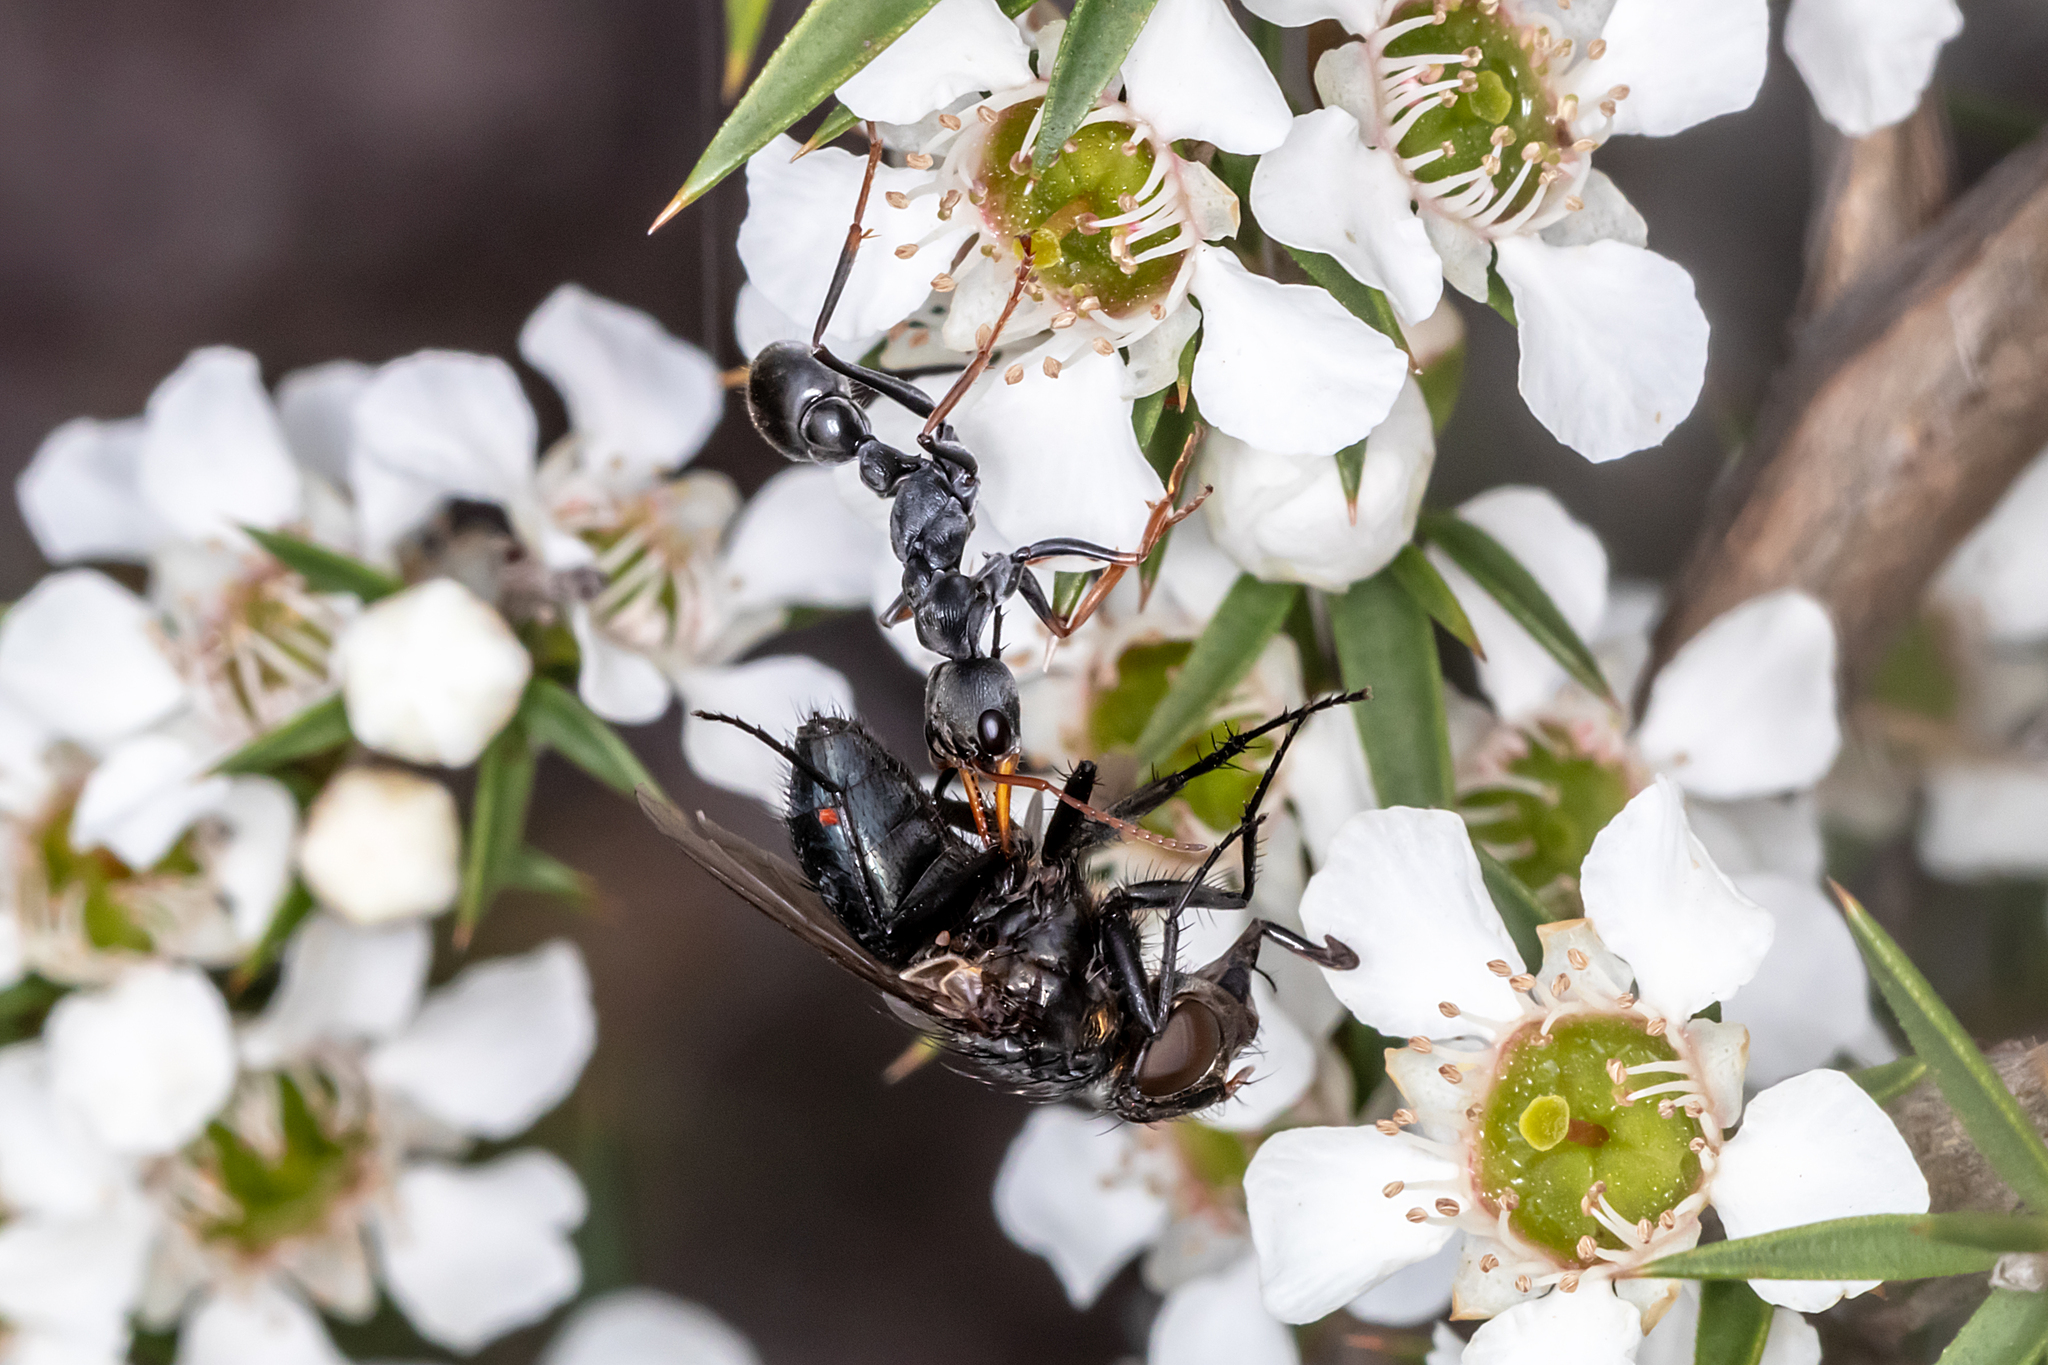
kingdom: Animalia
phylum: Arthropoda
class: Insecta
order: Hymenoptera
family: Formicidae
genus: Myrmecia
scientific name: Myrmecia pilosula
